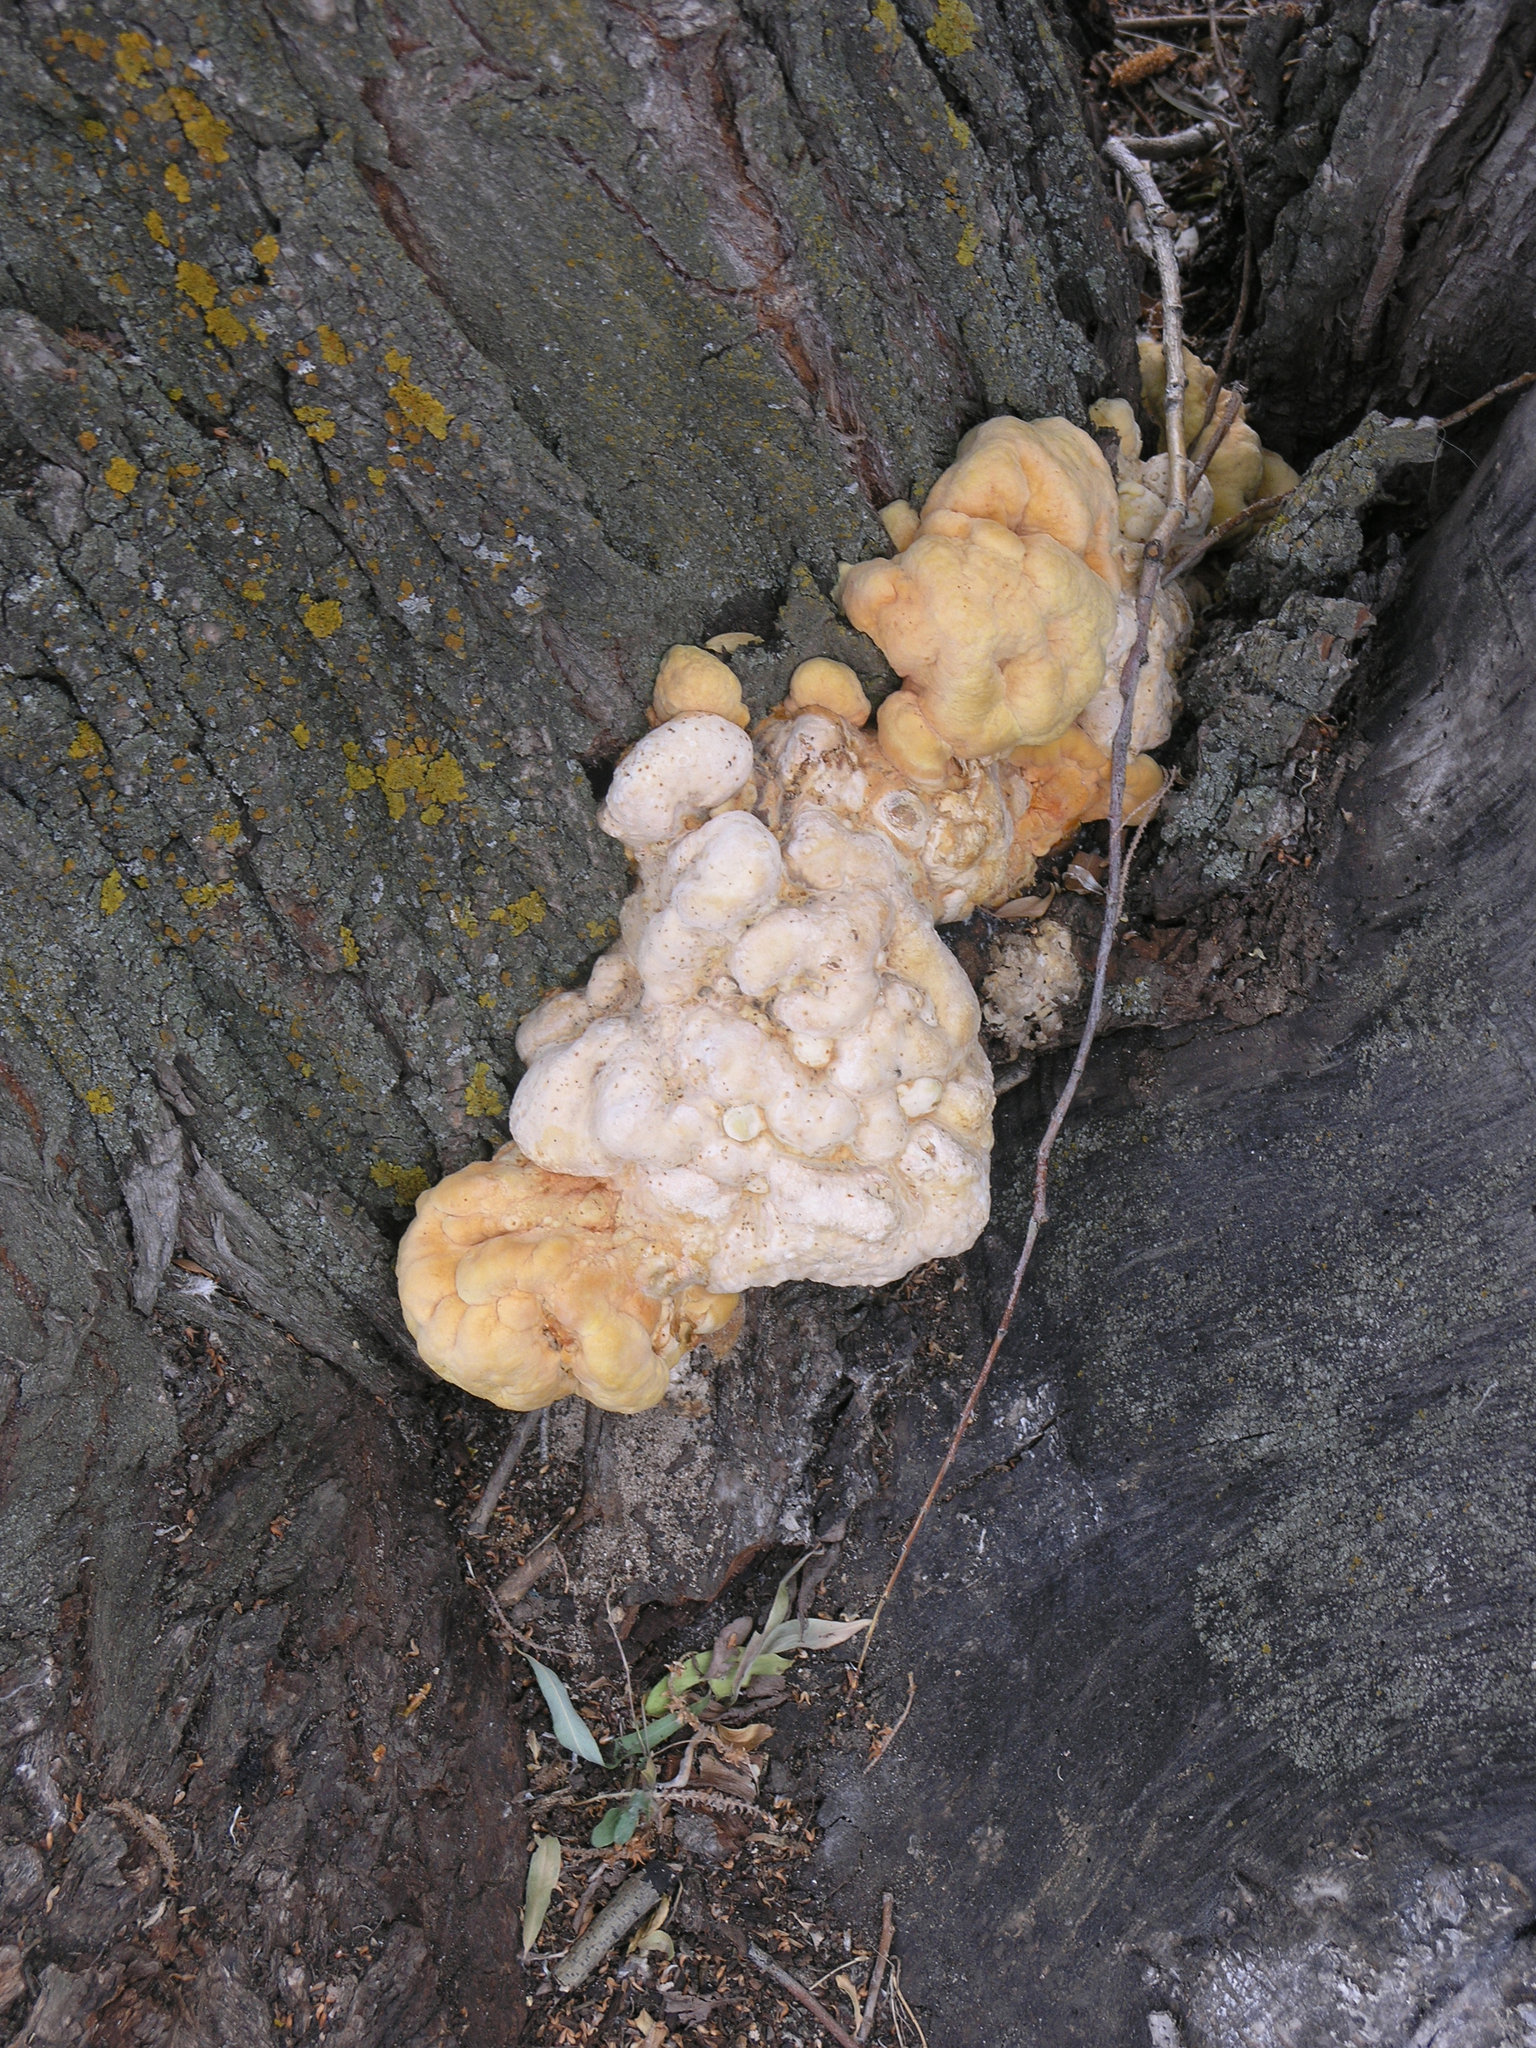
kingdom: Fungi
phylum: Basidiomycota
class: Agaricomycetes
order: Polyporales
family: Laetiporaceae
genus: Laetiporus
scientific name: Laetiporus sulphureus
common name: Chicken of the woods
